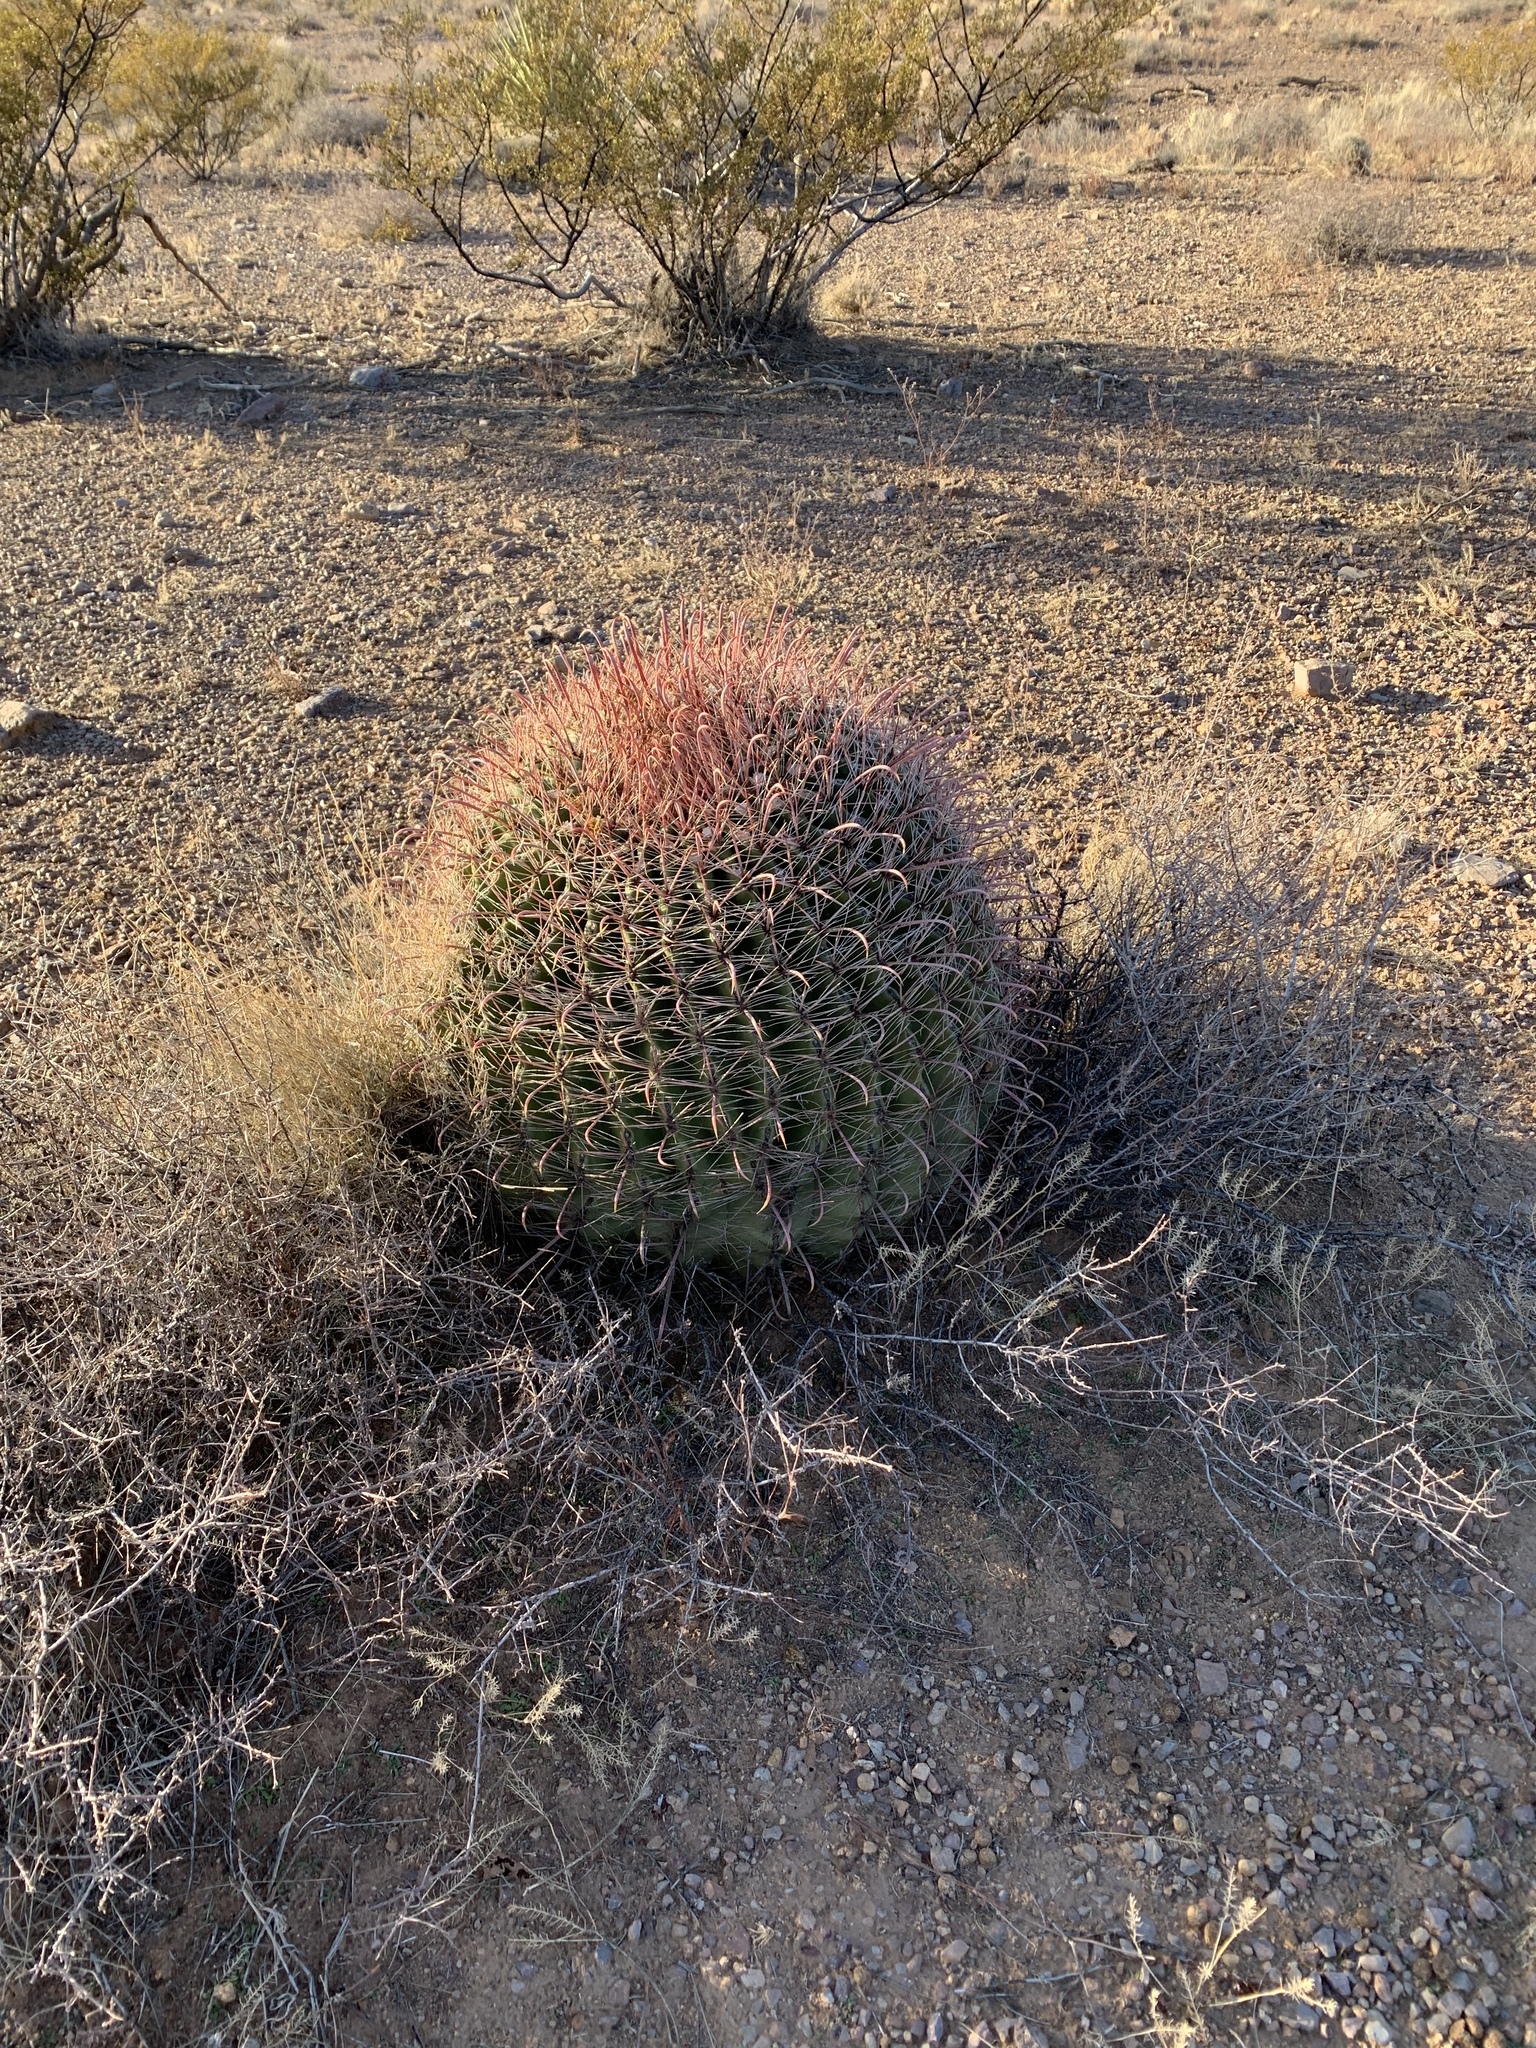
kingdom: Plantae
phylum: Tracheophyta
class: Magnoliopsida
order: Caryophyllales
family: Cactaceae
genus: Ferocactus
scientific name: Ferocactus wislizeni
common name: Candy barrel cactus
